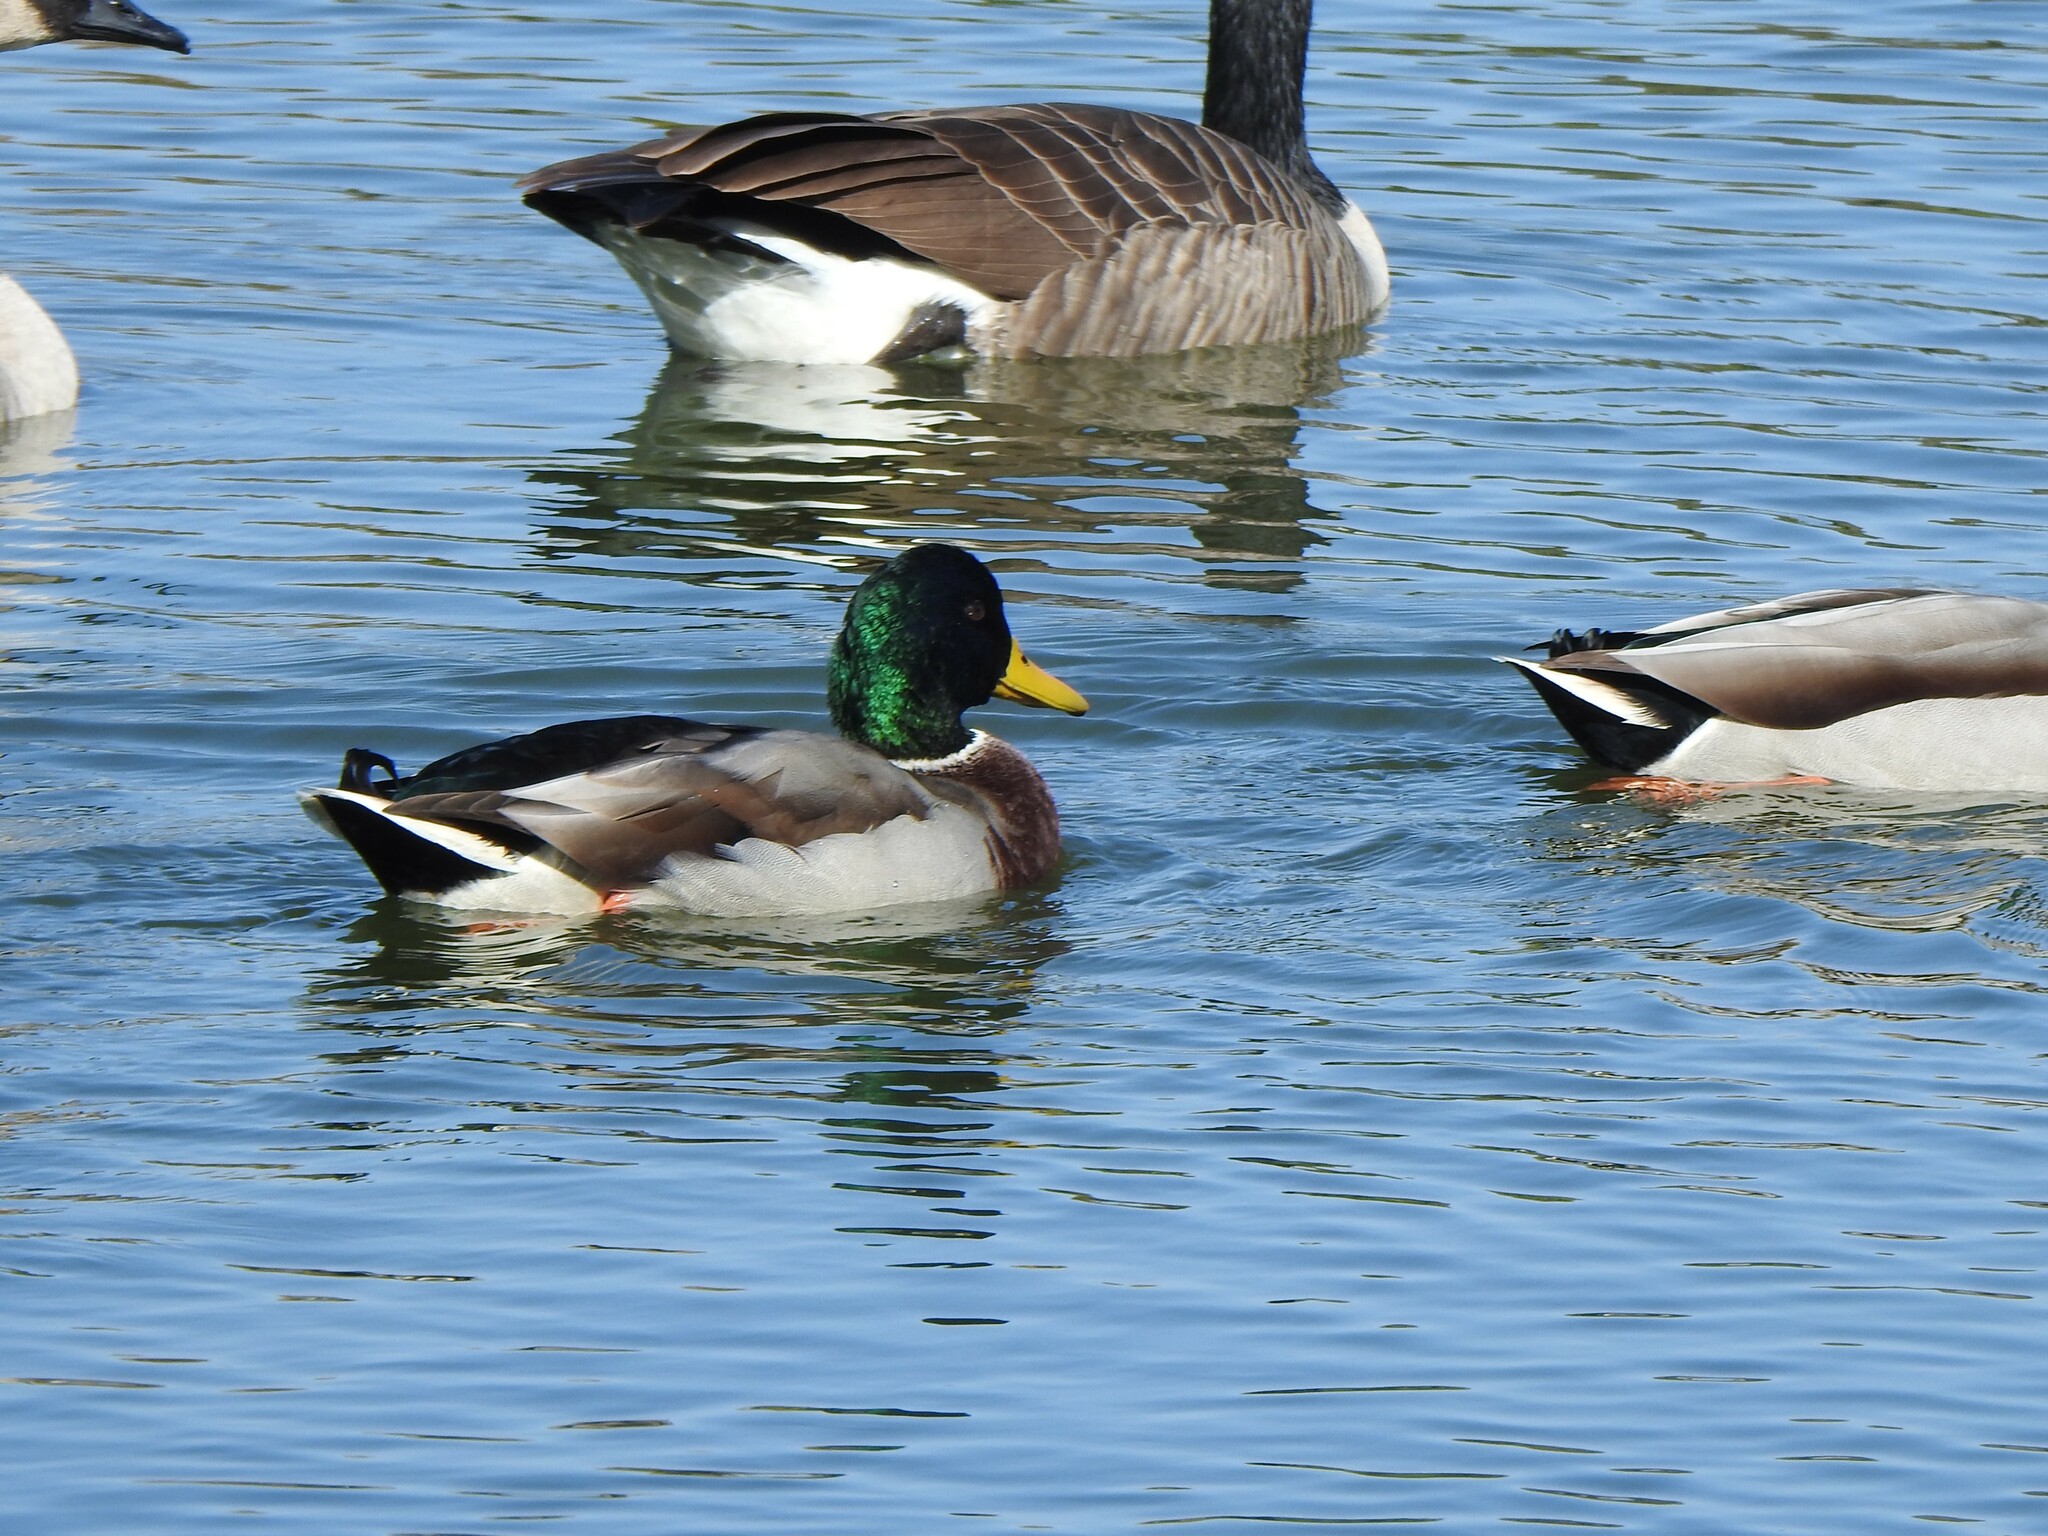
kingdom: Animalia
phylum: Chordata
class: Aves
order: Anseriformes
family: Anatidae
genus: Anas
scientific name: Anas platyrhynchos
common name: Mallard
